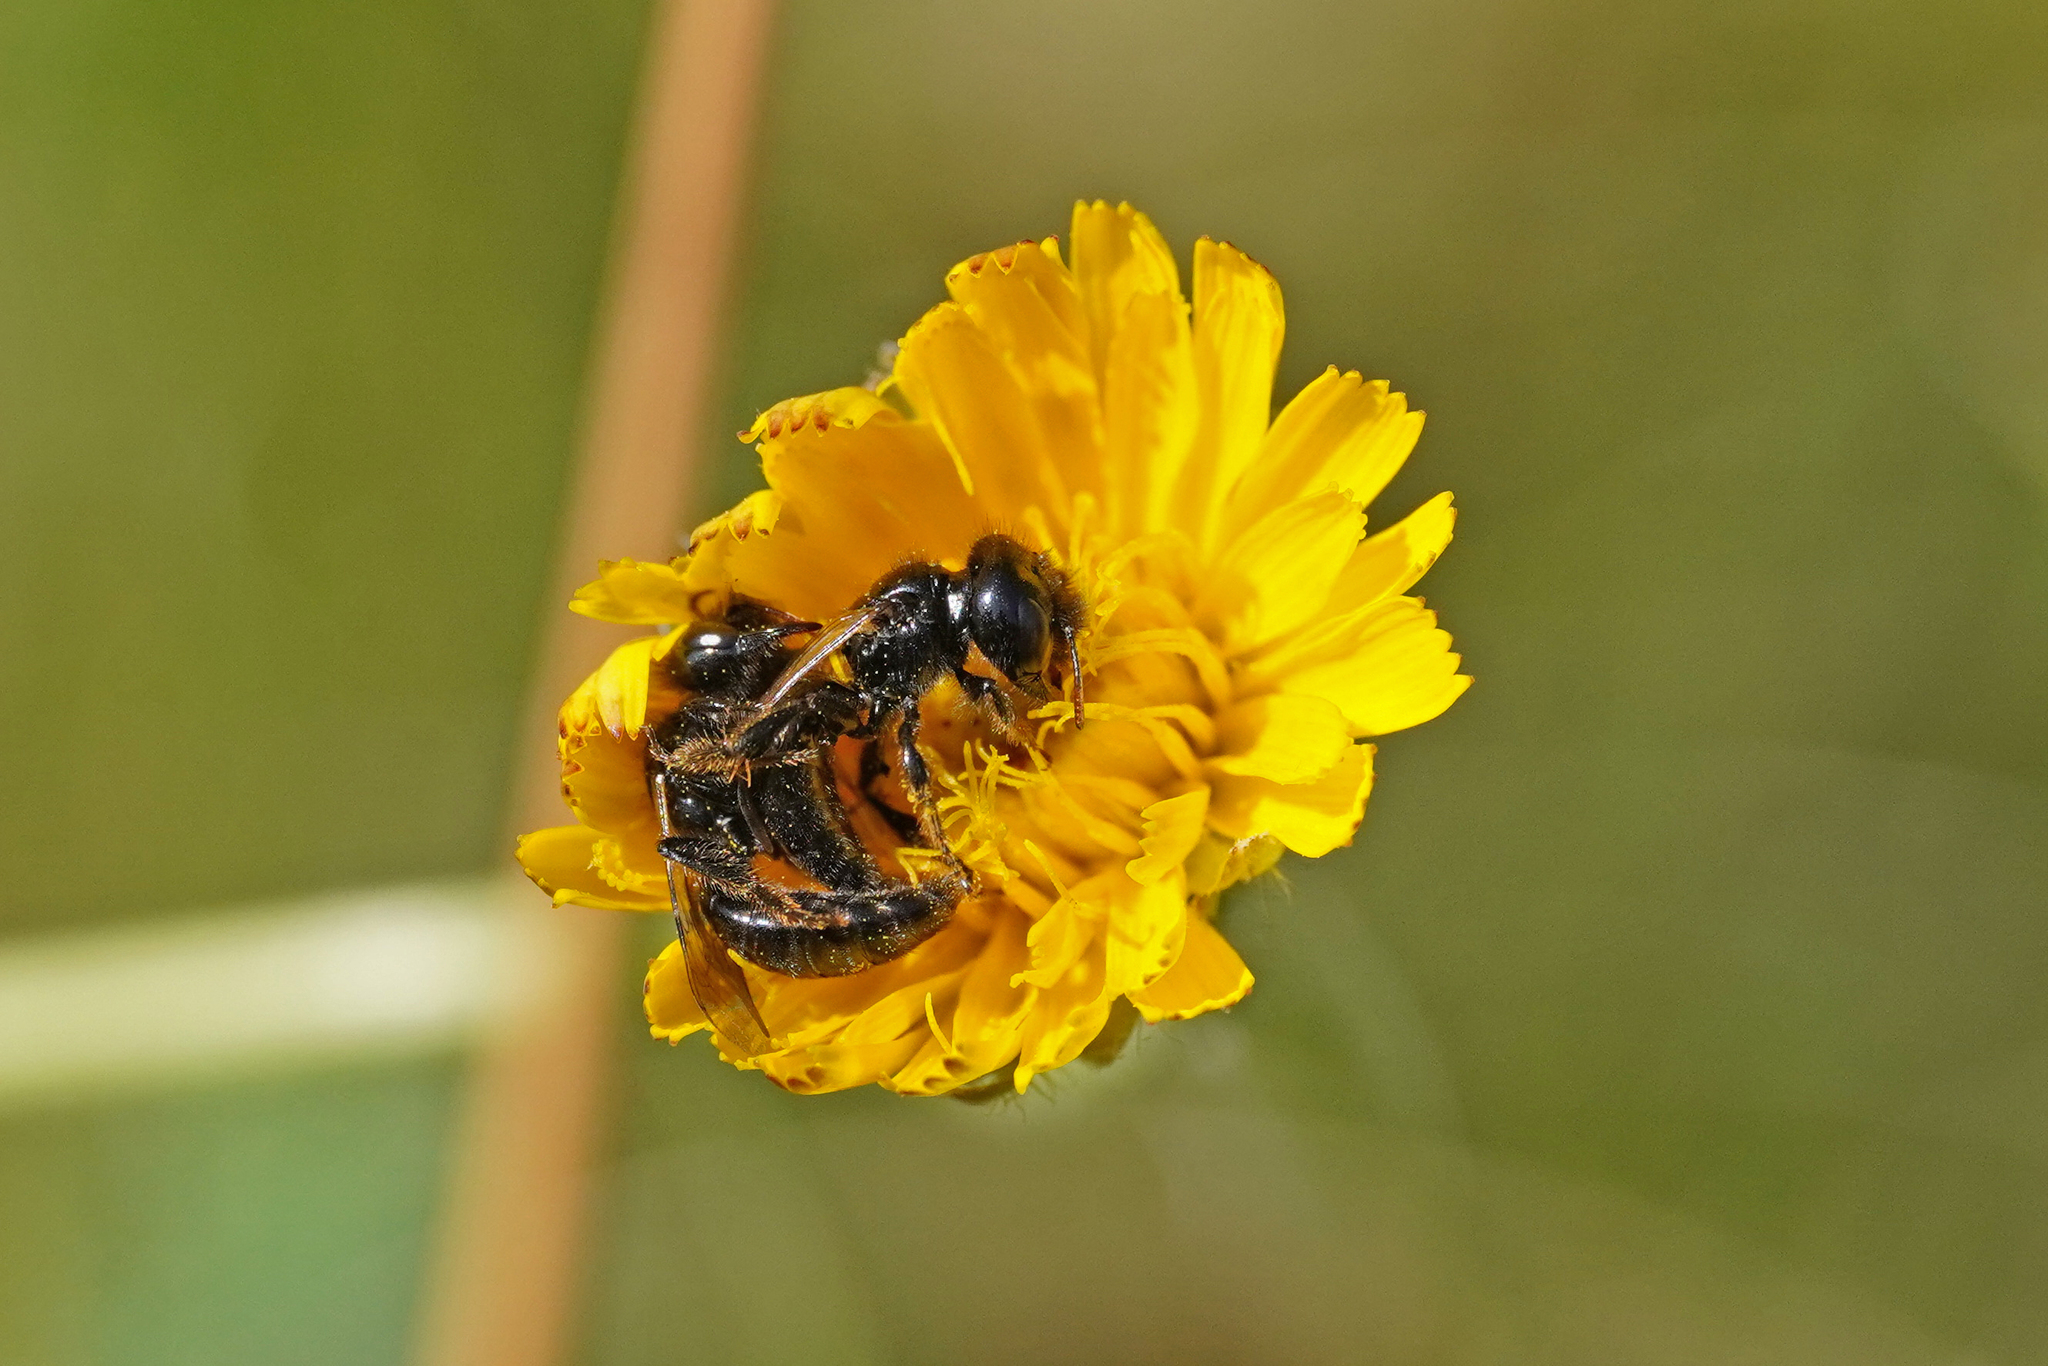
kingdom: Animalia
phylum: Arthropoda
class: Insecta
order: Hymenoptera
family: Andrenidae
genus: Panurgus
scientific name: Panurgus calcaratus
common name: Small shaggy bee
